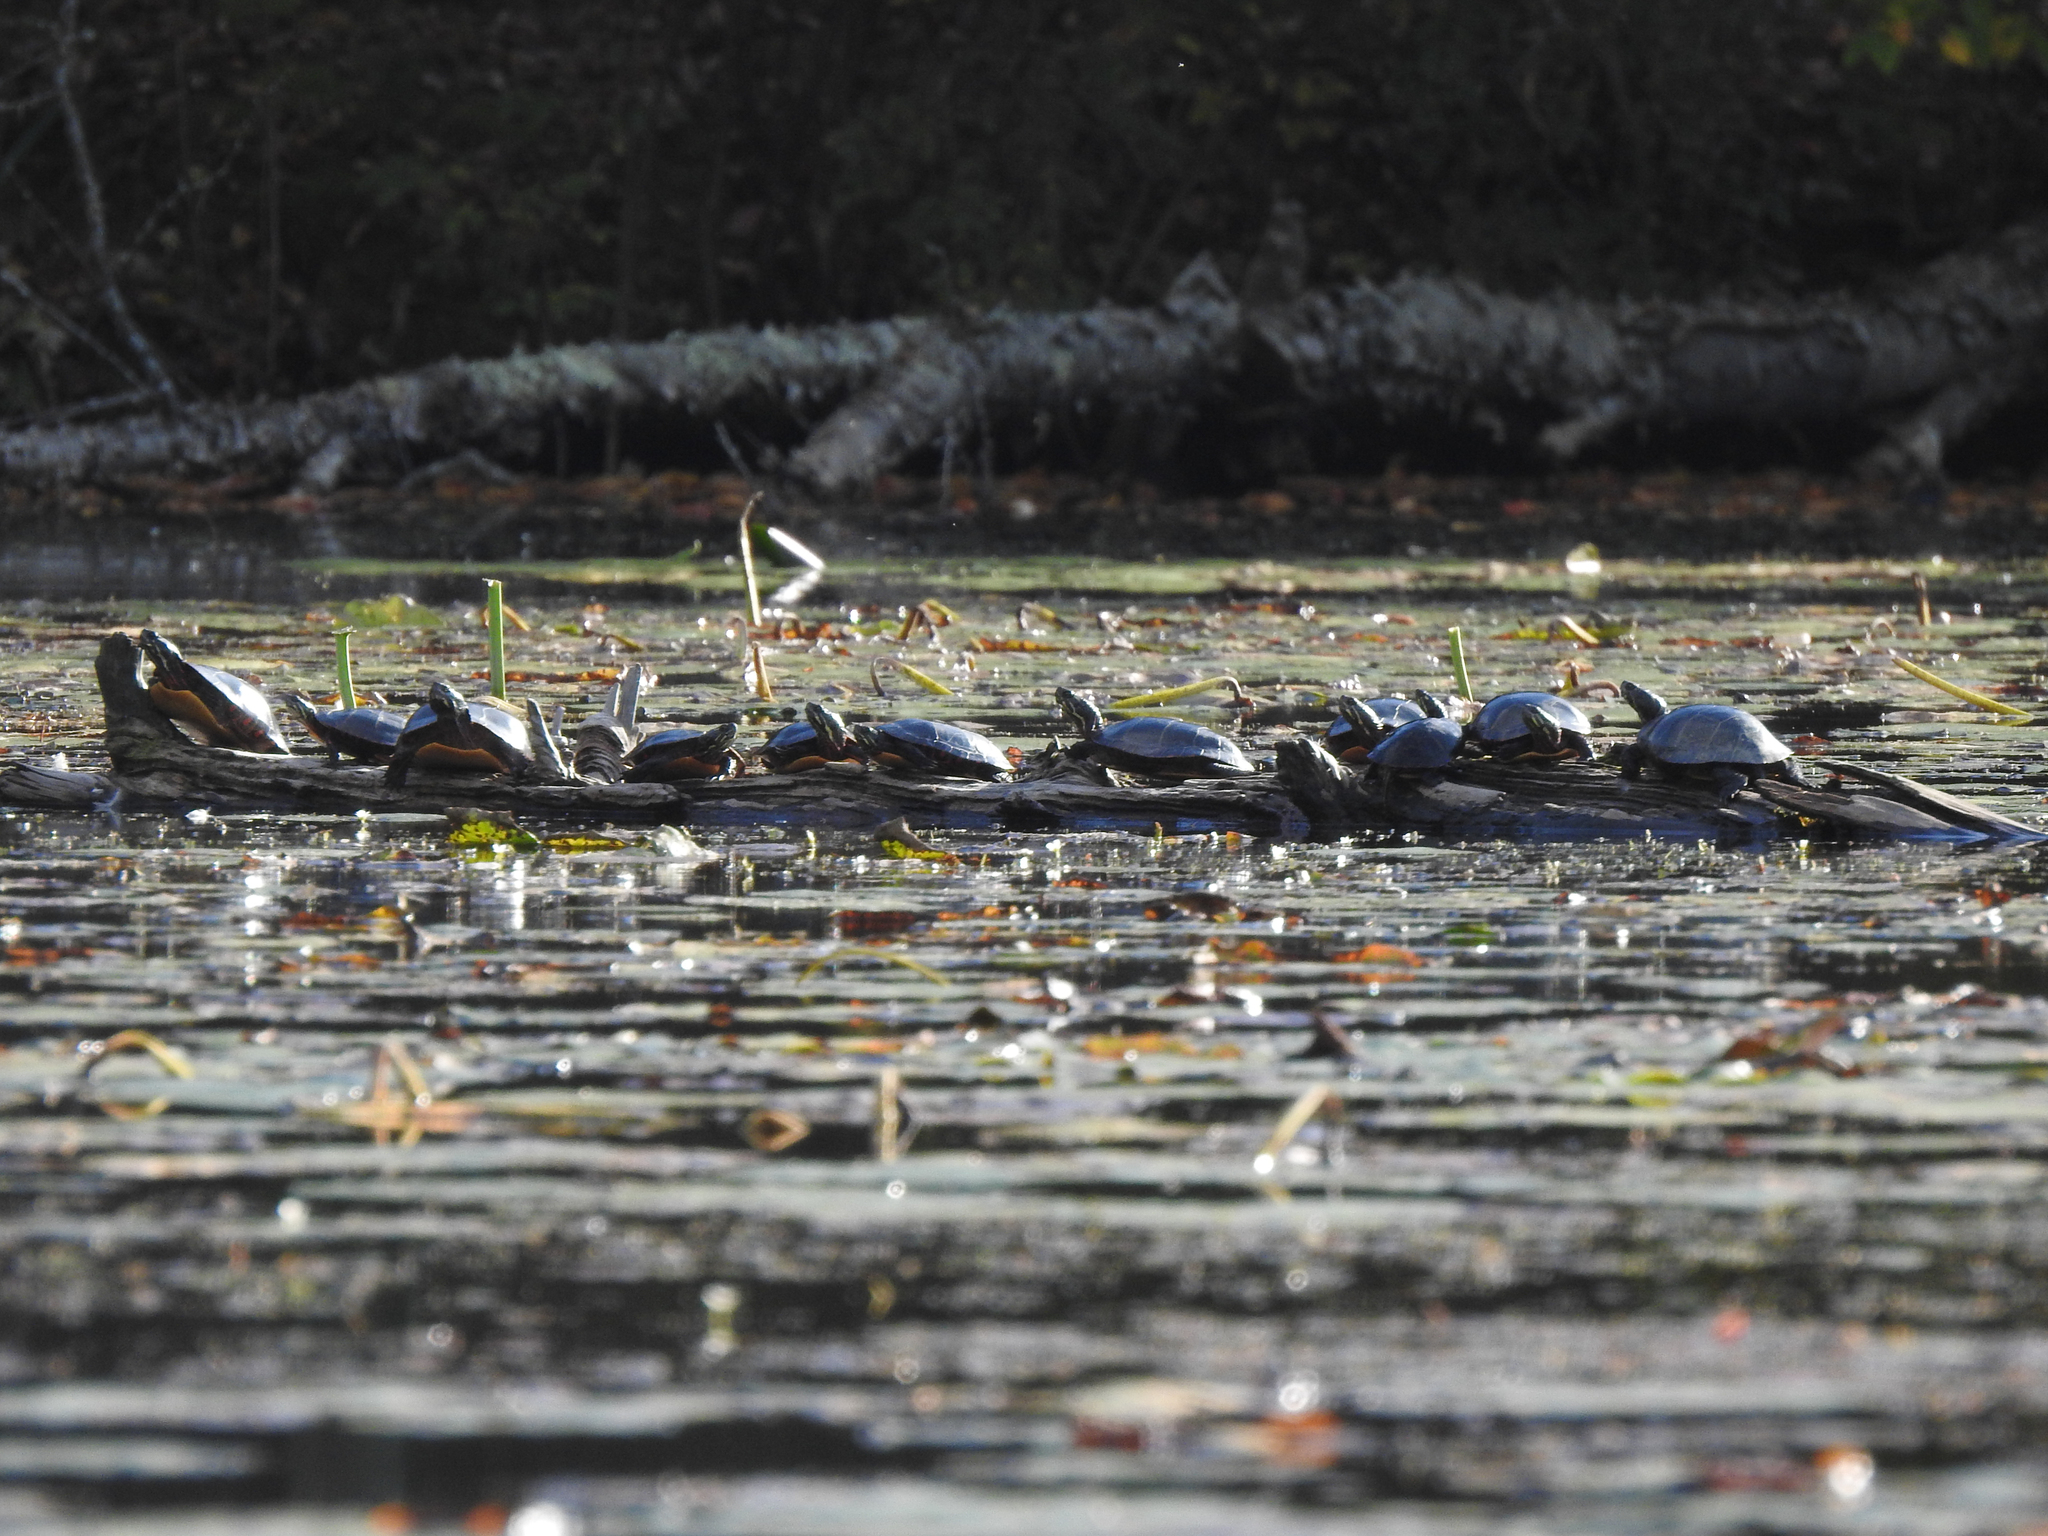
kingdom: Animalia
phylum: Chordata
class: Testudines
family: Emydidae
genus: Chrysemys
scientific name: Chrysemys picta
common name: Painted turtle
